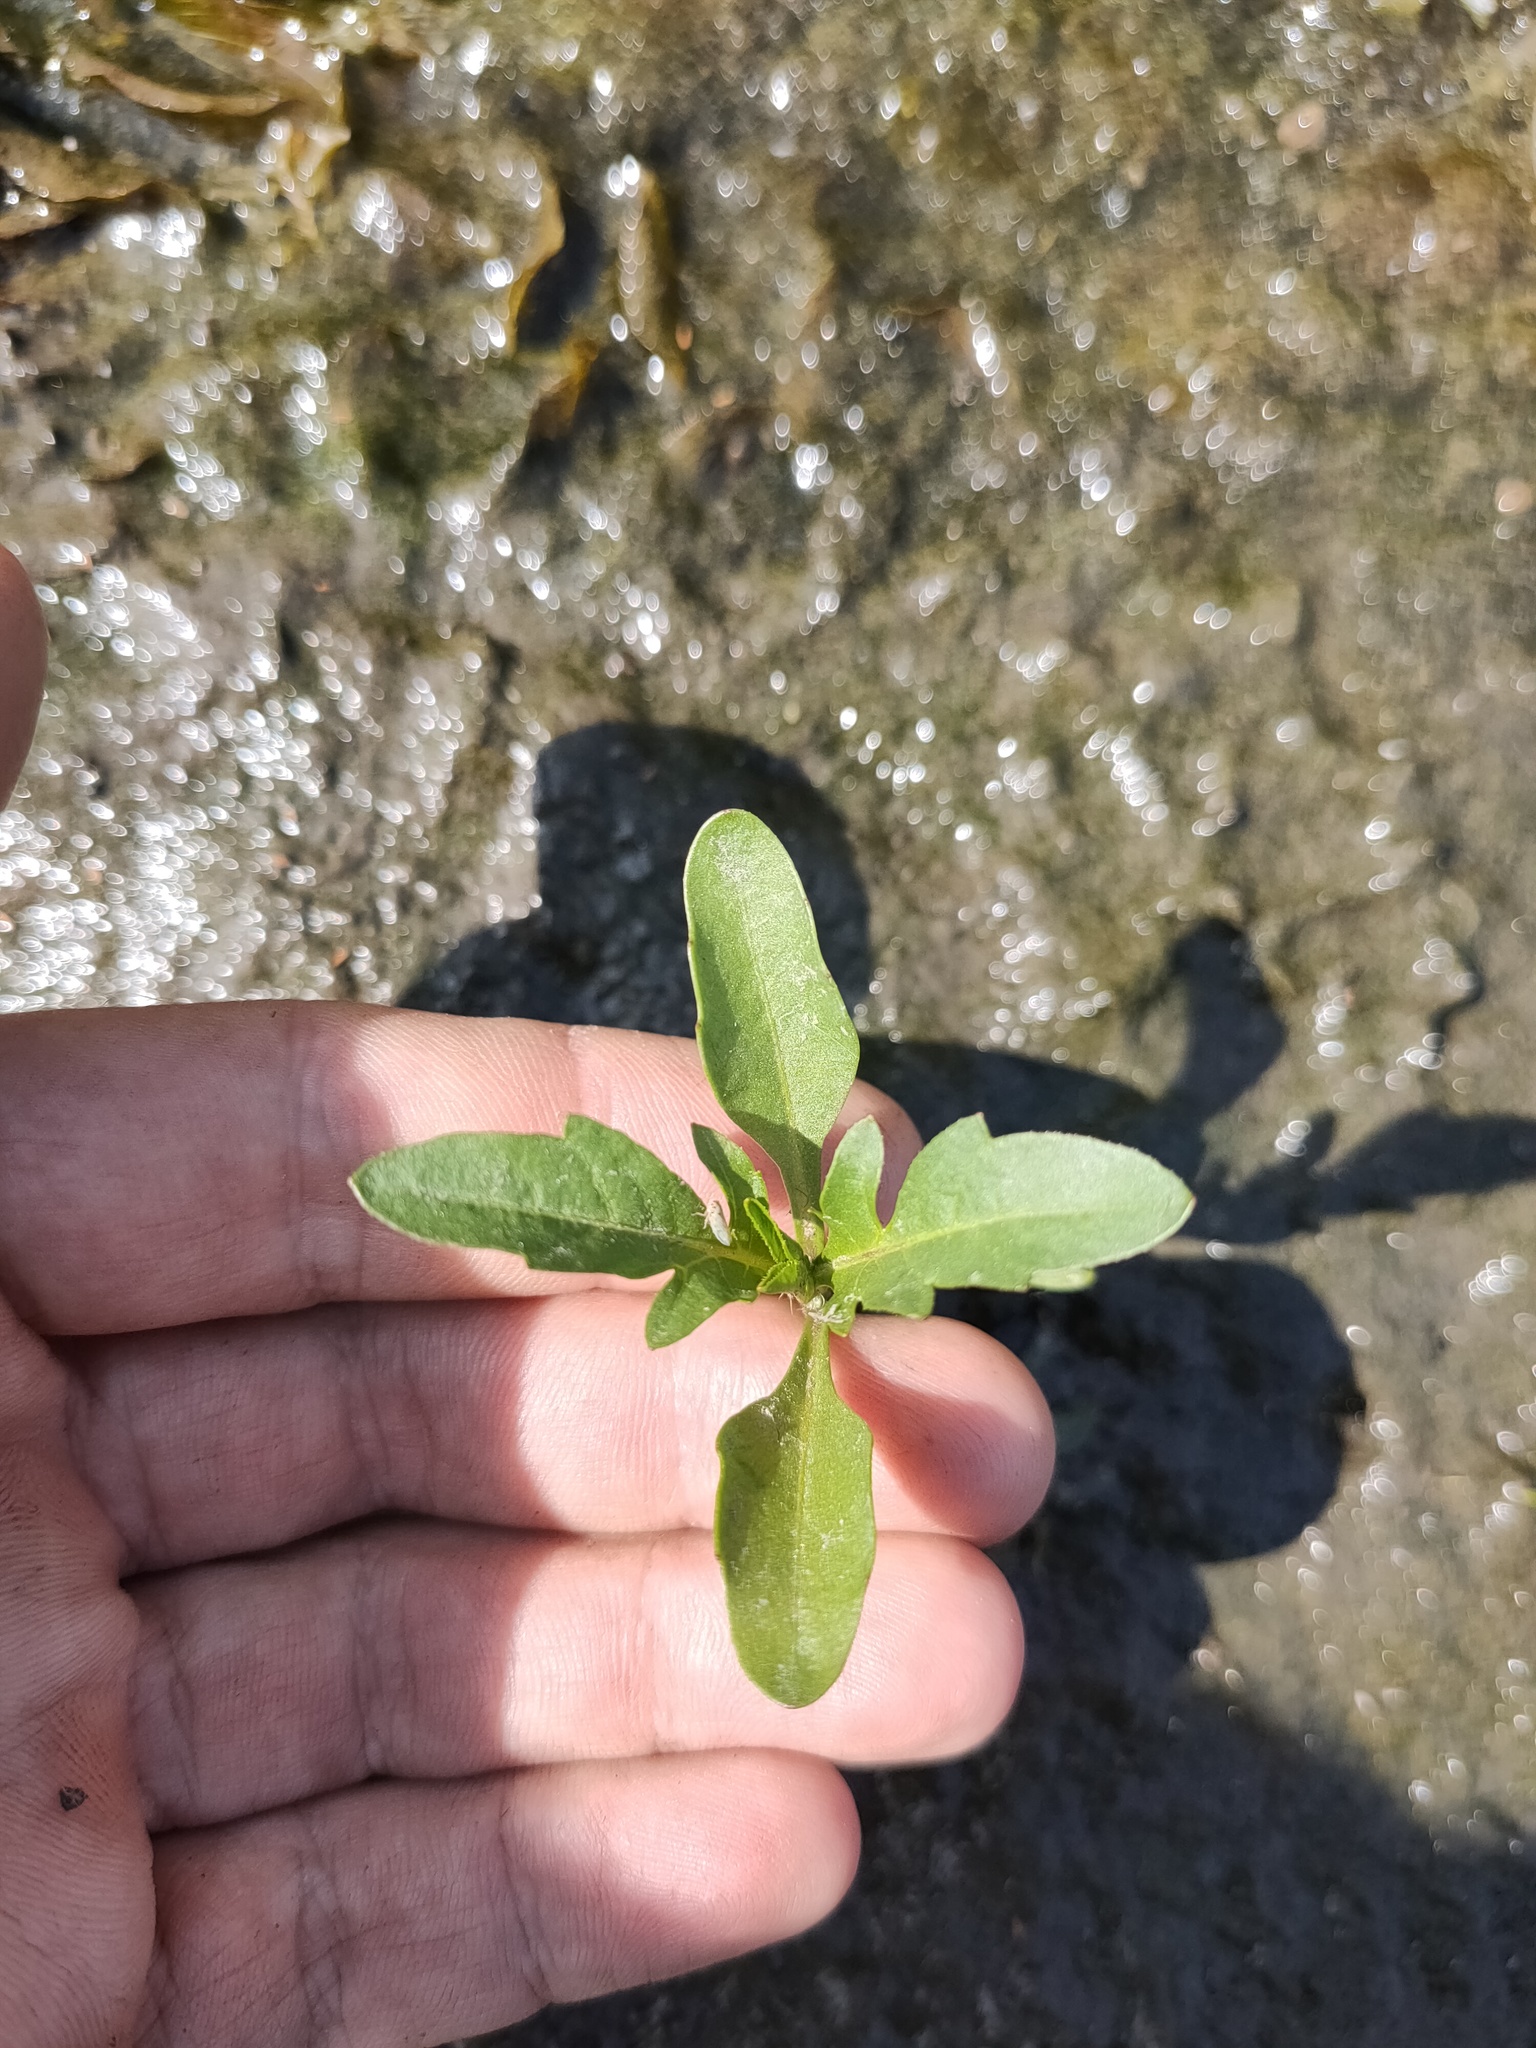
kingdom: Plantae
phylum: Tracheophyta
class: Magnoliopsida
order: Asterales
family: Asteraceae
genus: Bidens
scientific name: Bidens tripartita
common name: Trifid bur-marigold
